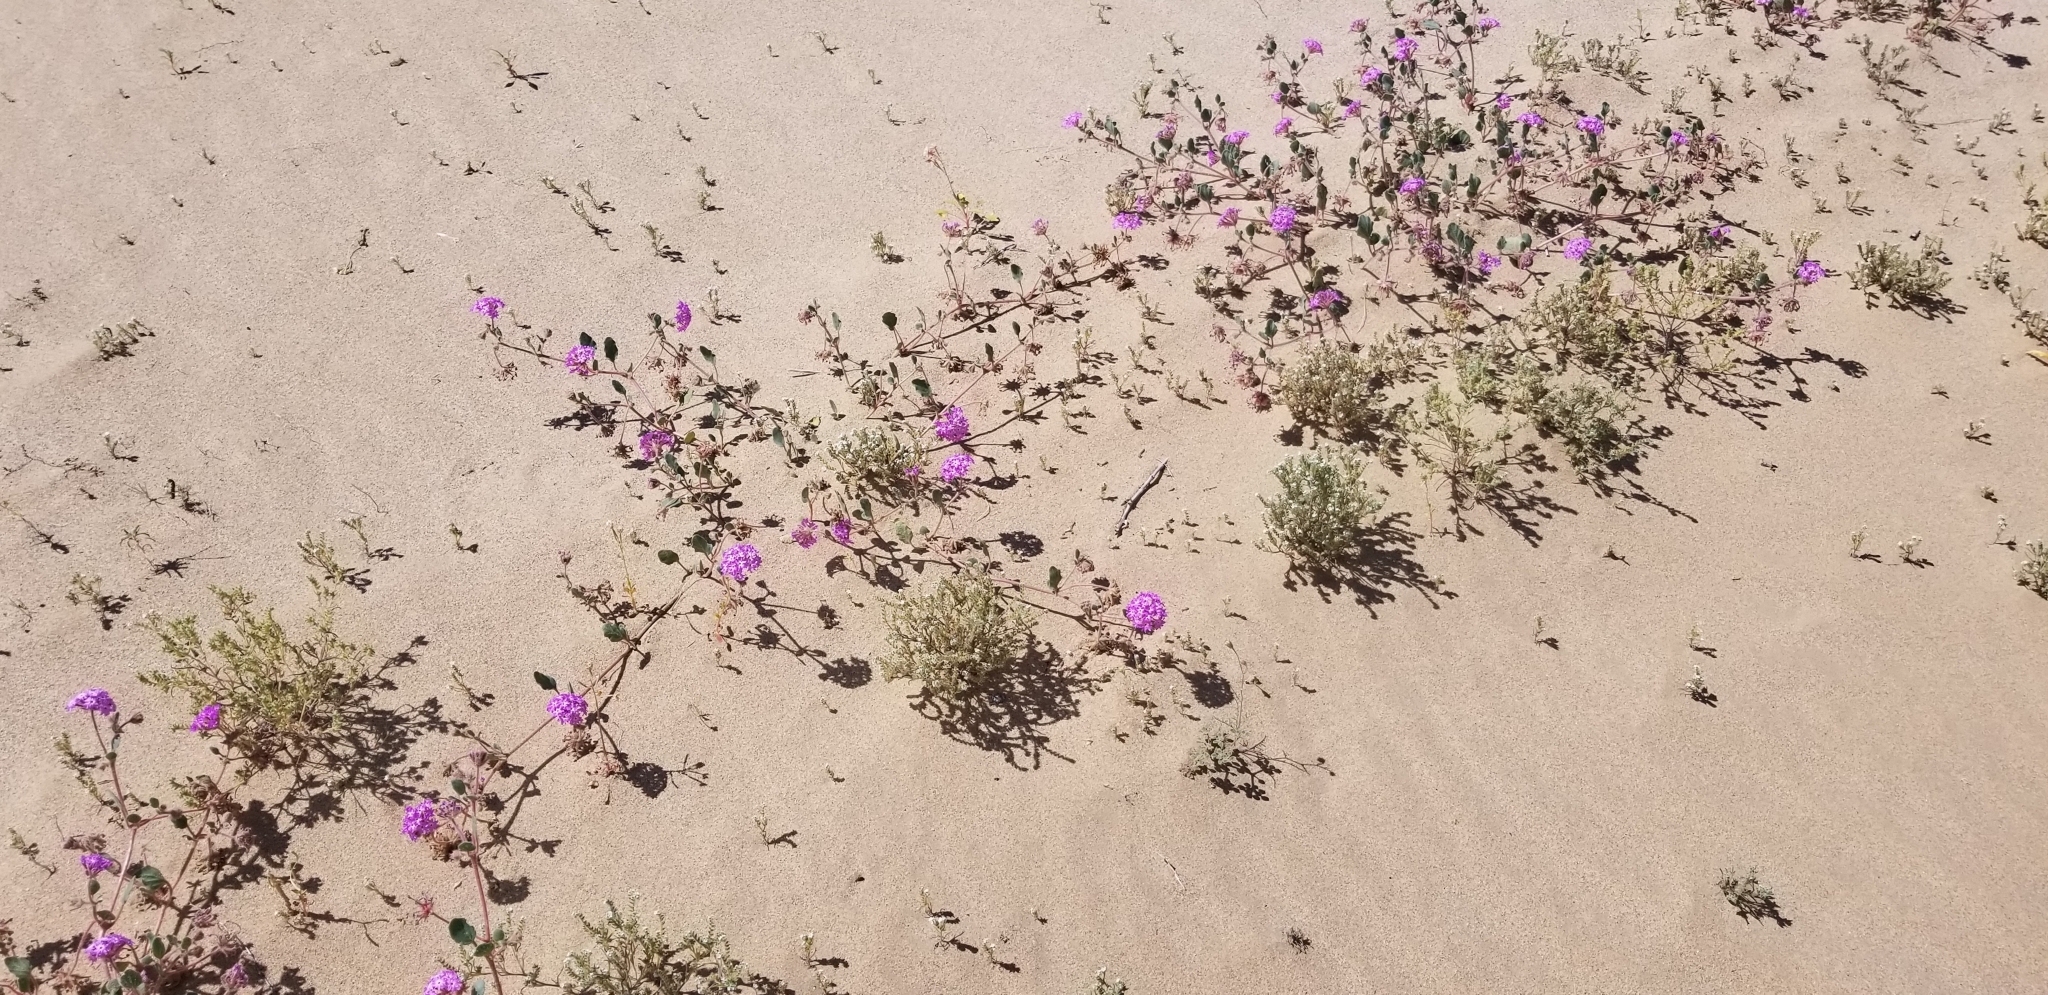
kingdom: Plantae
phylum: Tracheophyta
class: Magnoliopsida
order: Caryophyllales
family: Nyctaginaceae
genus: Abronia
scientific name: Abronia villosa
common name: Desert sand-verbena
